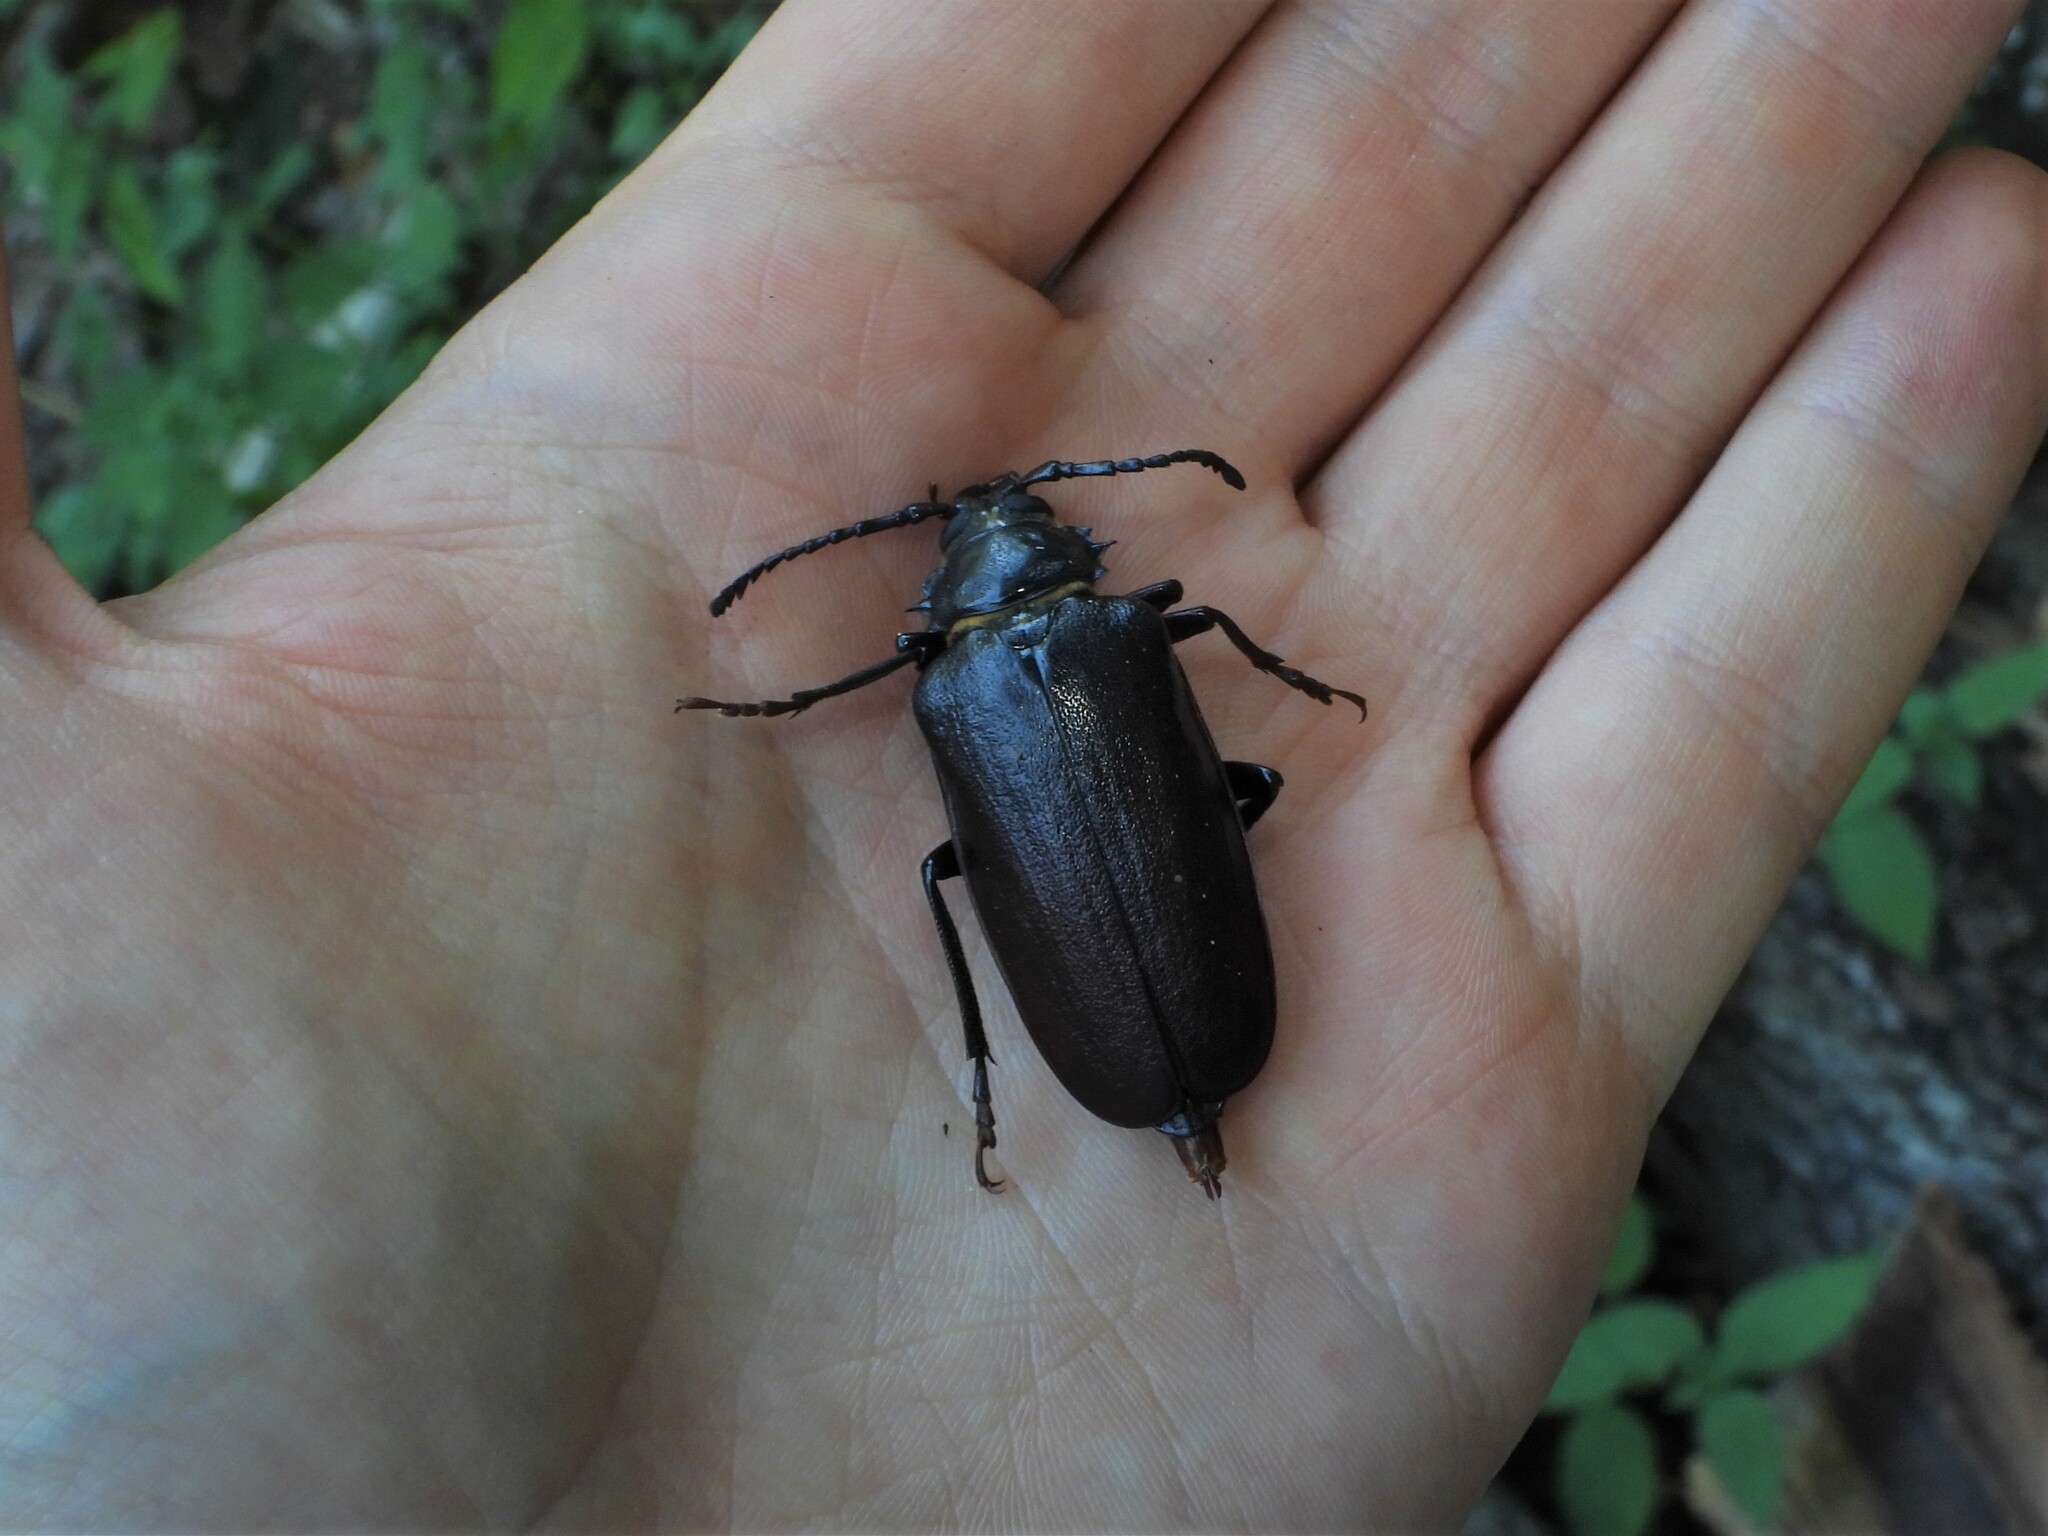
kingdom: Animalia
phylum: Arthropoda
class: Insecta
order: Coleoptera
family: Cerambycidae
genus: Prionus
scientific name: Prionus coriarius
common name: Tanner beetle
